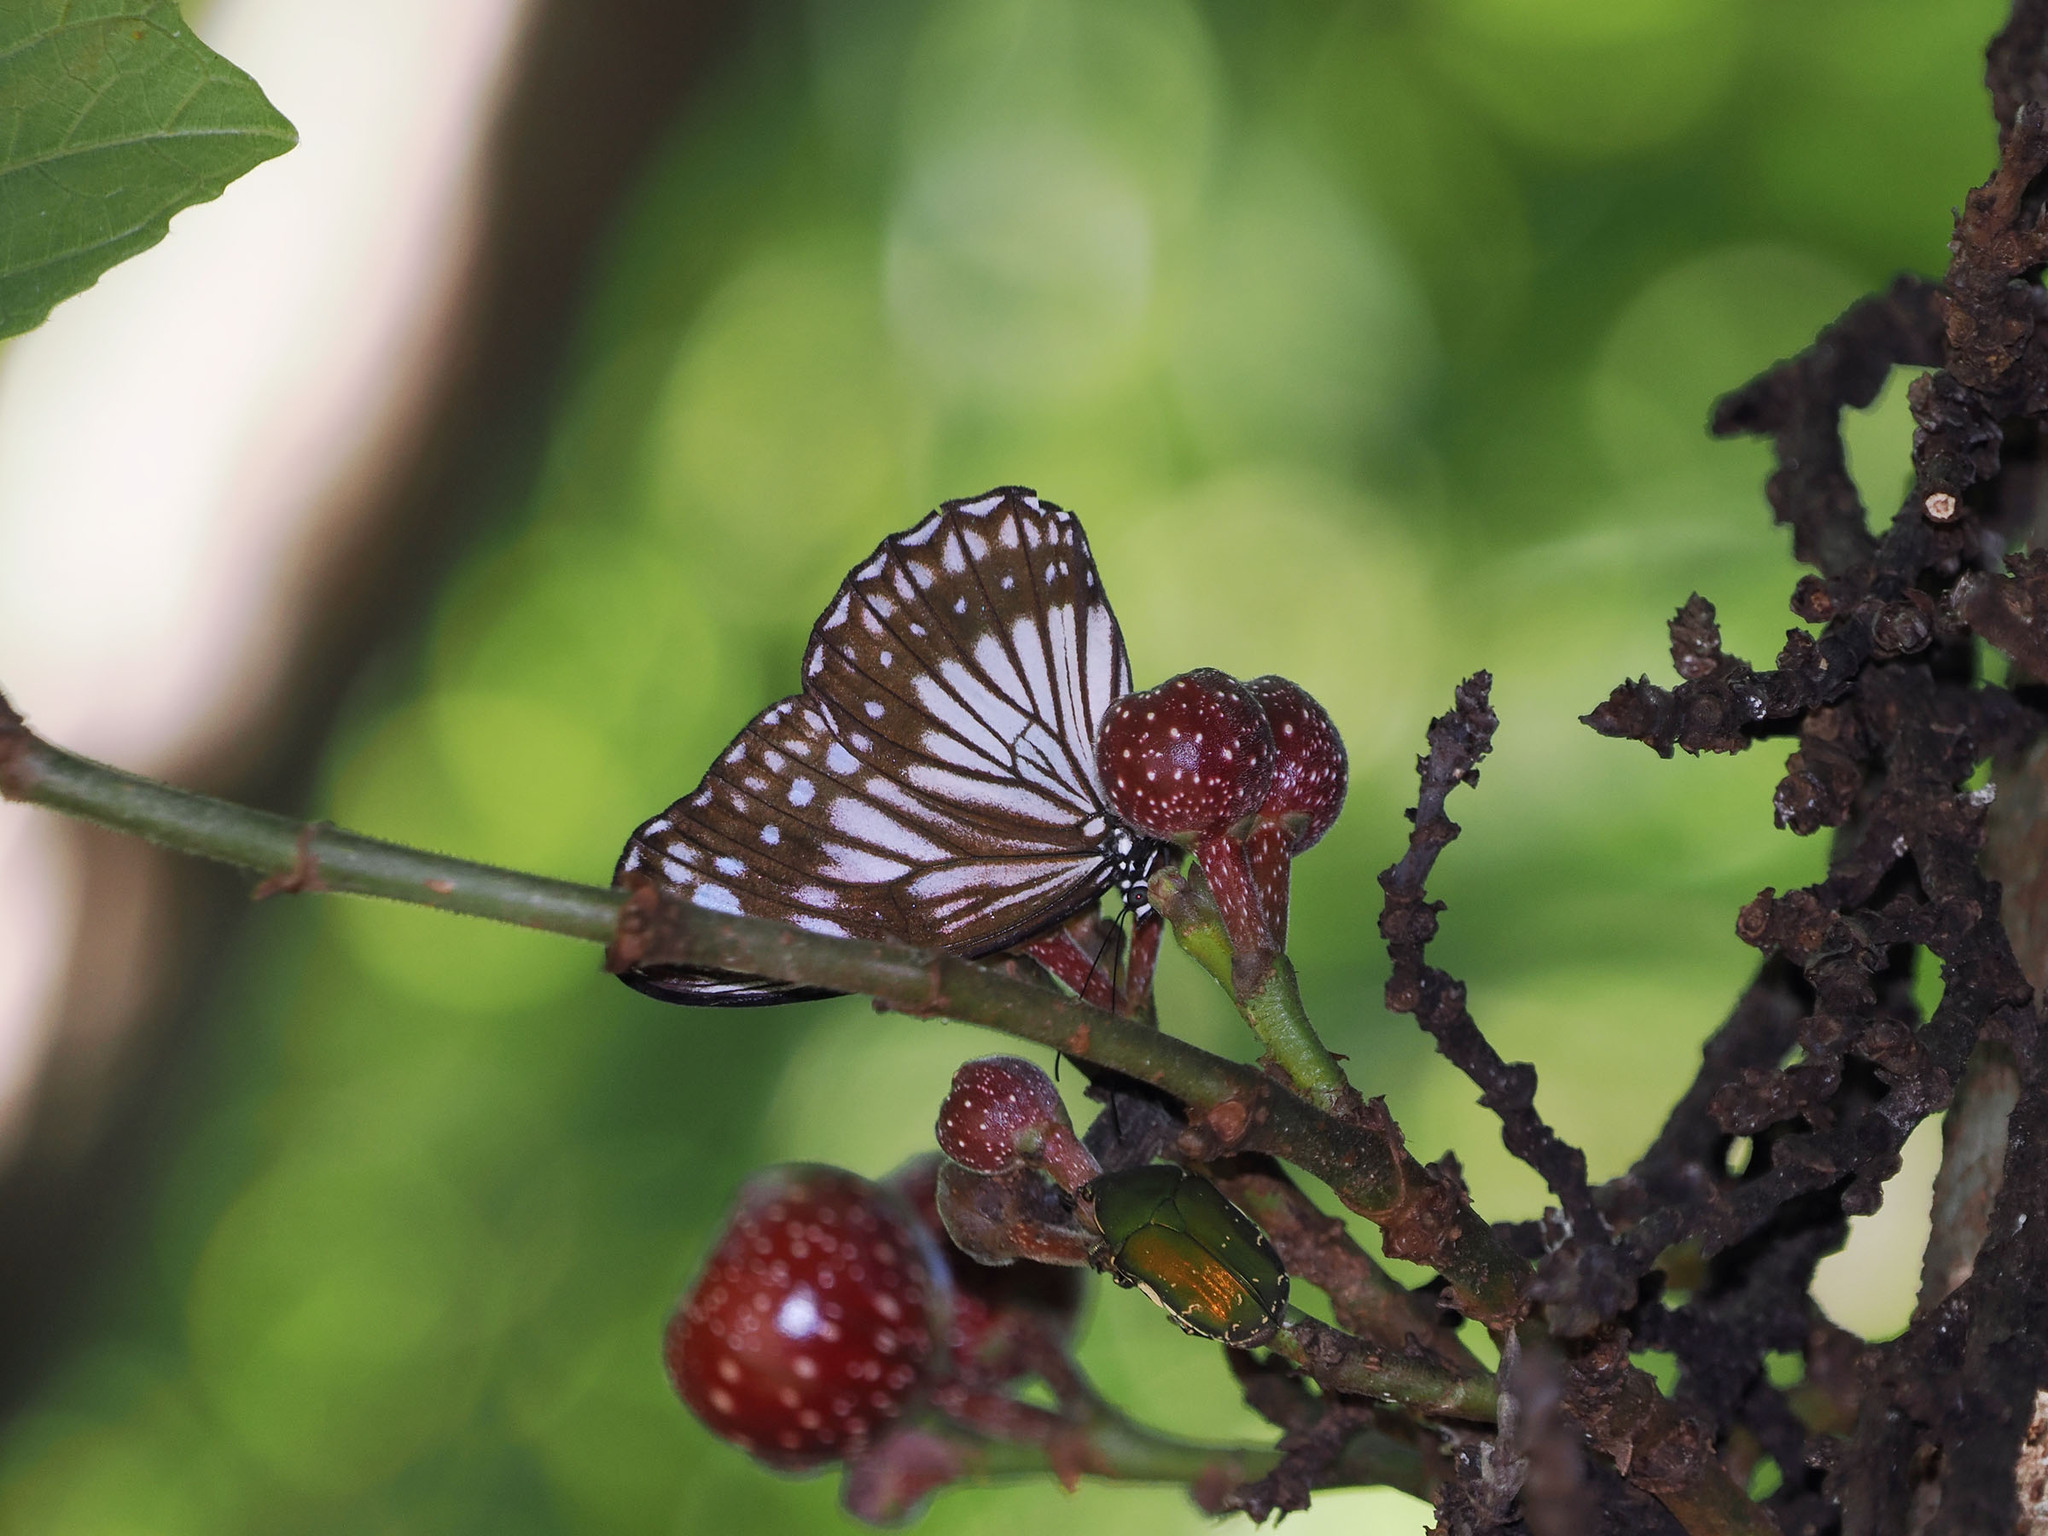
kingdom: Animalia
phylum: Arthropoda
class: Insecta
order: Lepidoptera
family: Nymphalidae
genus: Zethera
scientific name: Zethera pimplea
